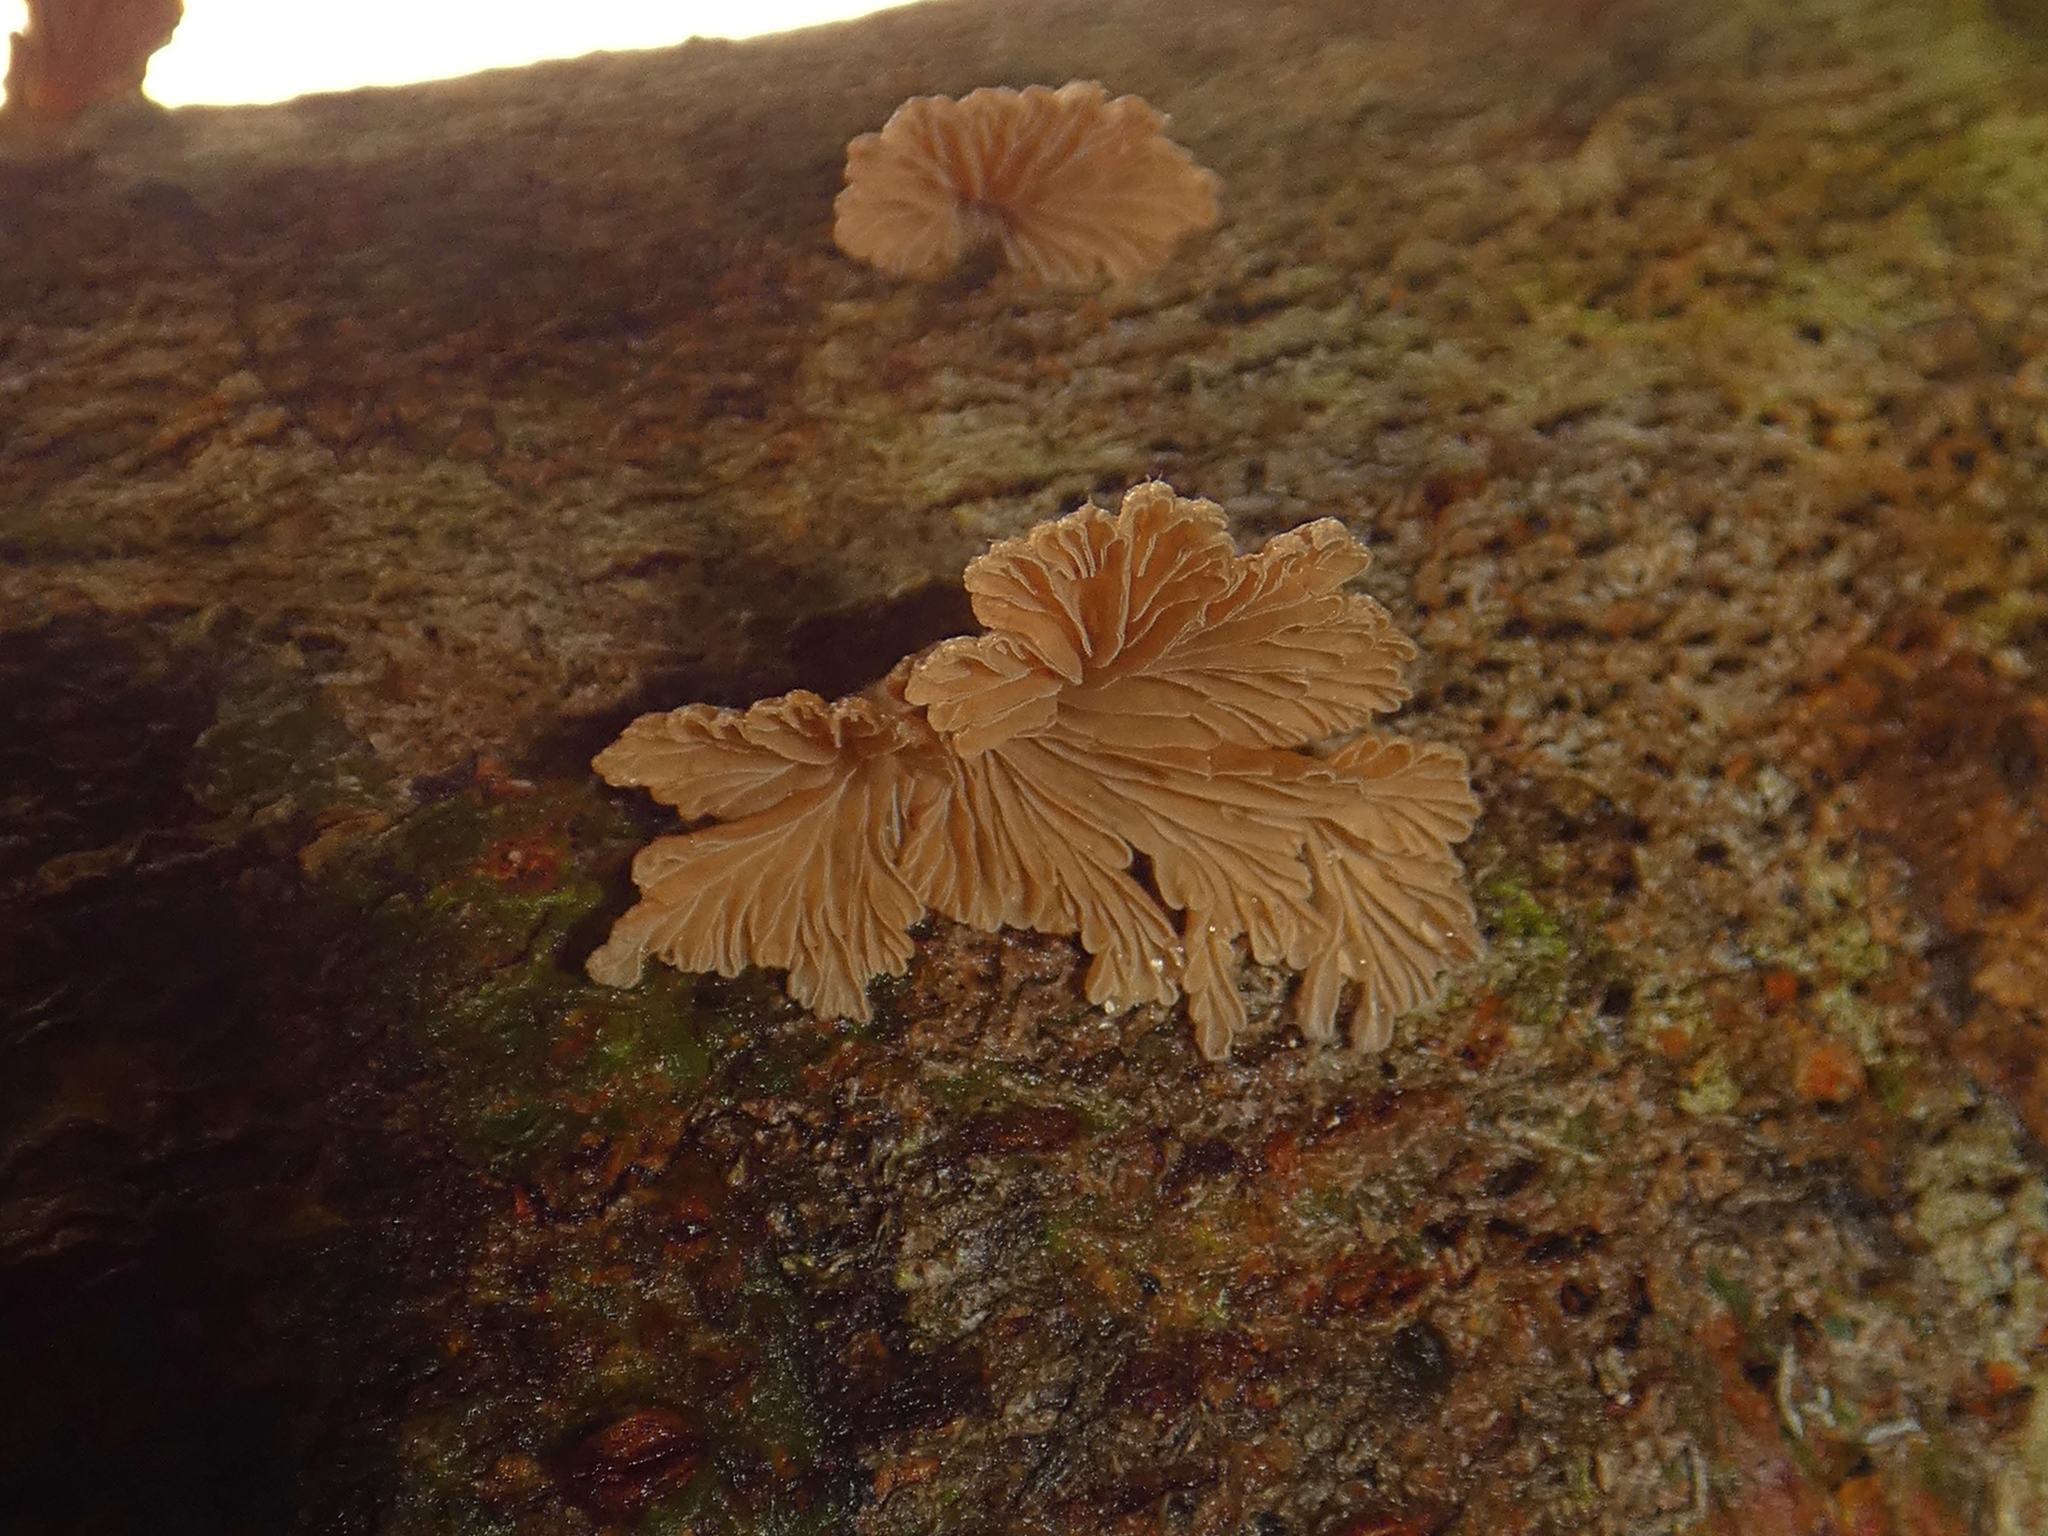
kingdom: Fungi
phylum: Basidiomycota
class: Agaricomycetes
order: Agaricales
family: Schizophyllaceae
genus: Schizophyllum
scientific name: Schizophyllum commune
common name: Common porecrust
